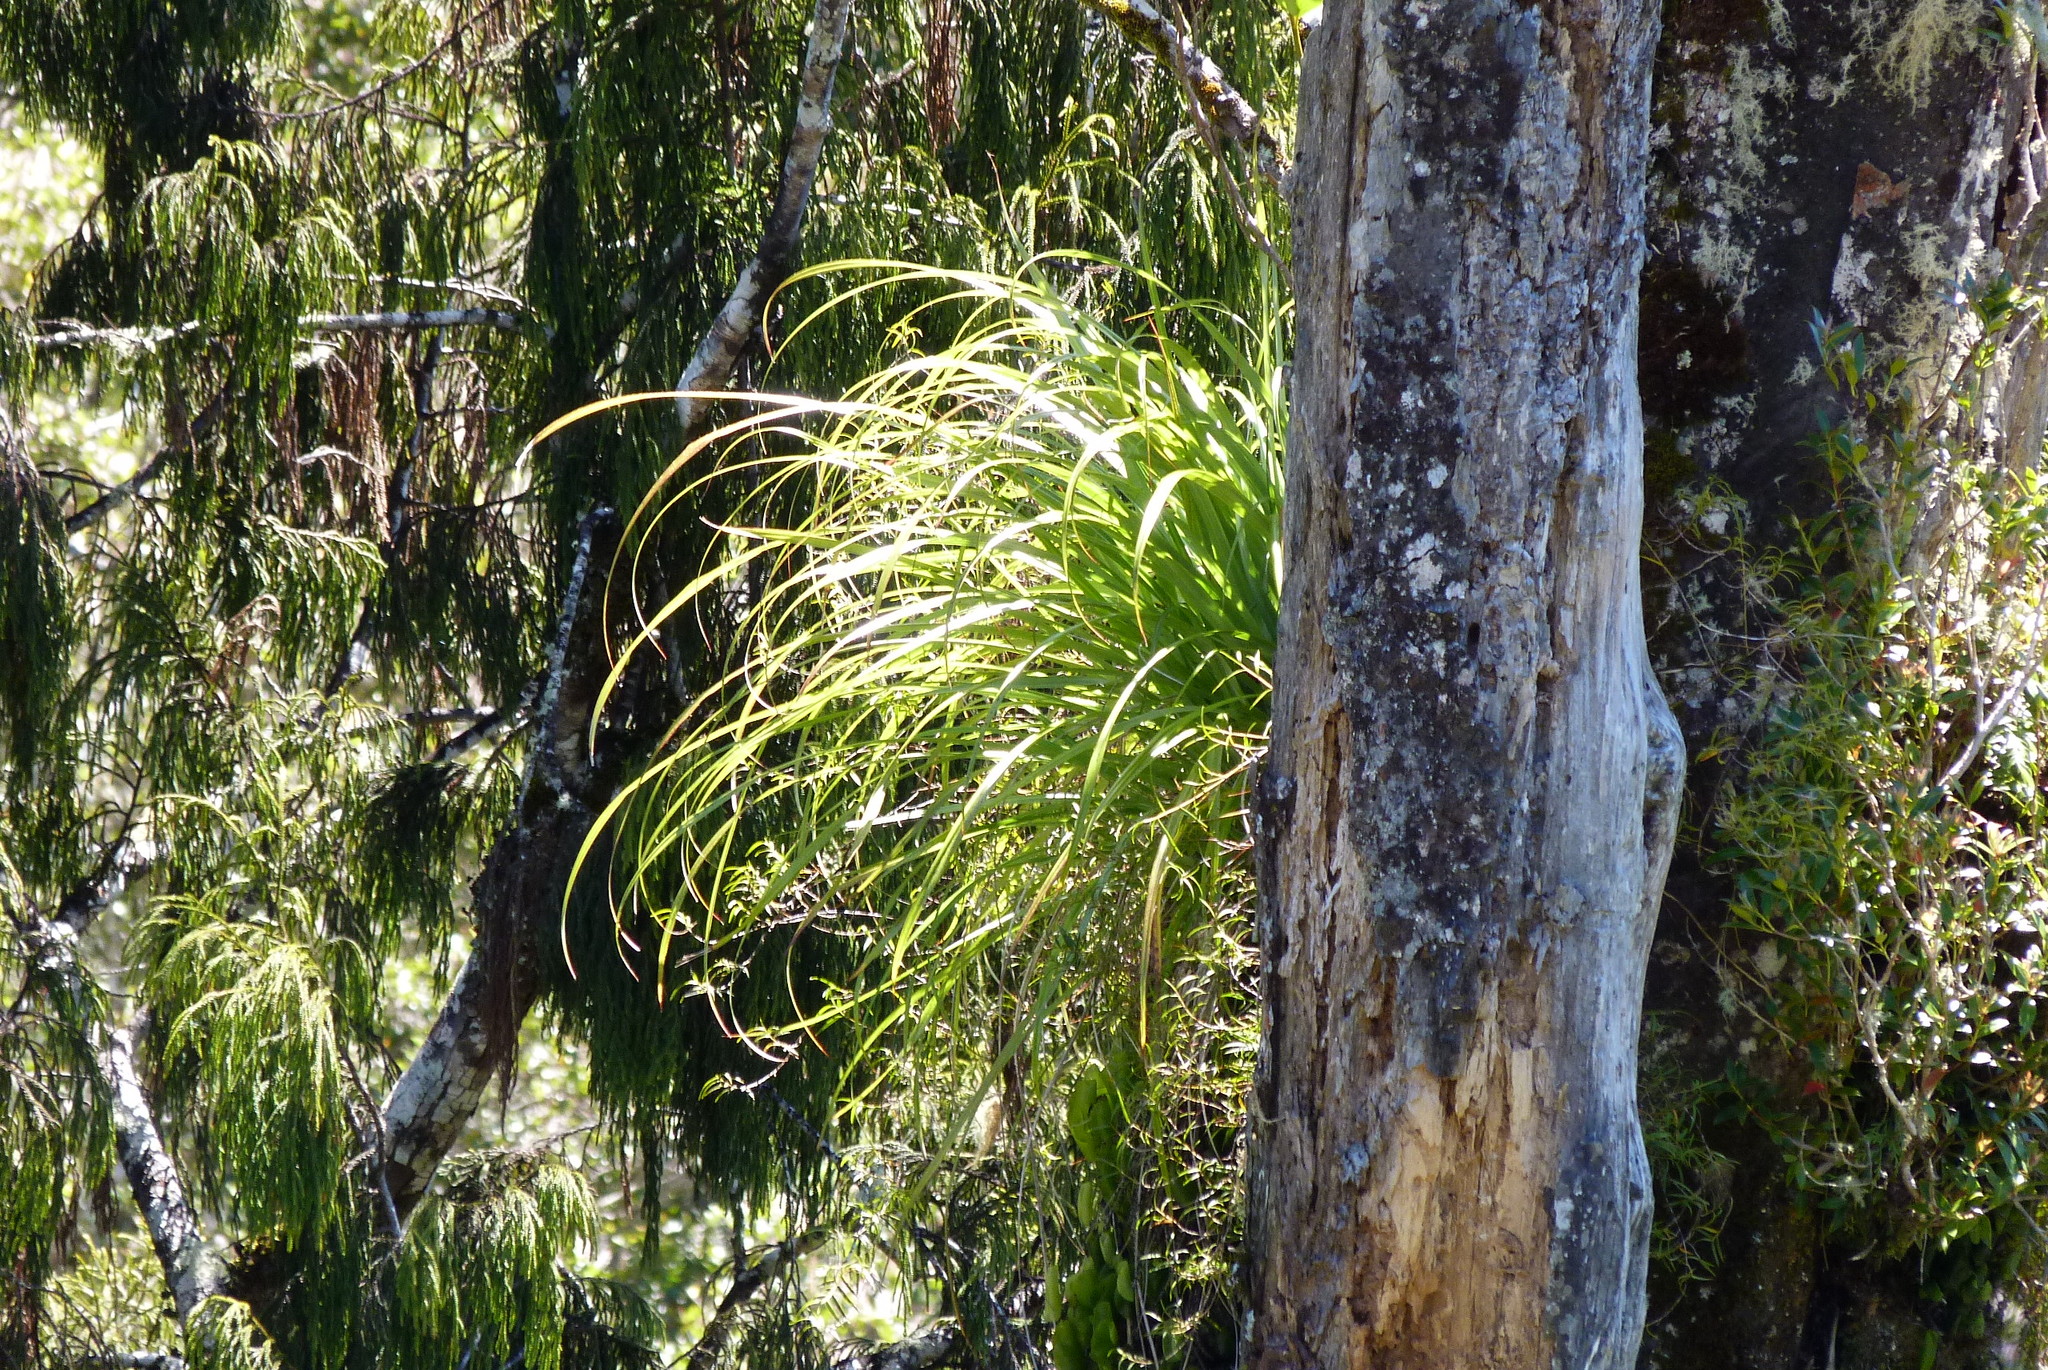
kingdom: Plantae
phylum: Tracheophyta
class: Liliopsida
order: Asparagales
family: Asteliaceae
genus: Astelia
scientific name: Astelia solandri
